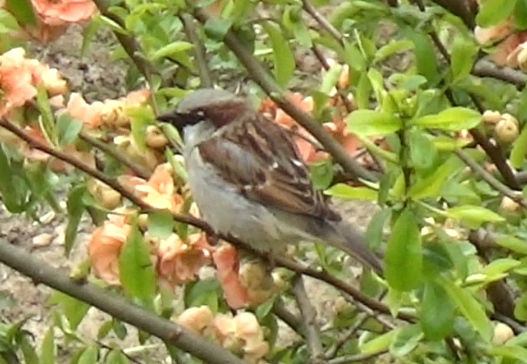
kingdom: Animalia
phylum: Chordata
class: Aves
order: Passeriformes
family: Passeridae
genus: Passer
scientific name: Passer domesticus
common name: House sparrow
